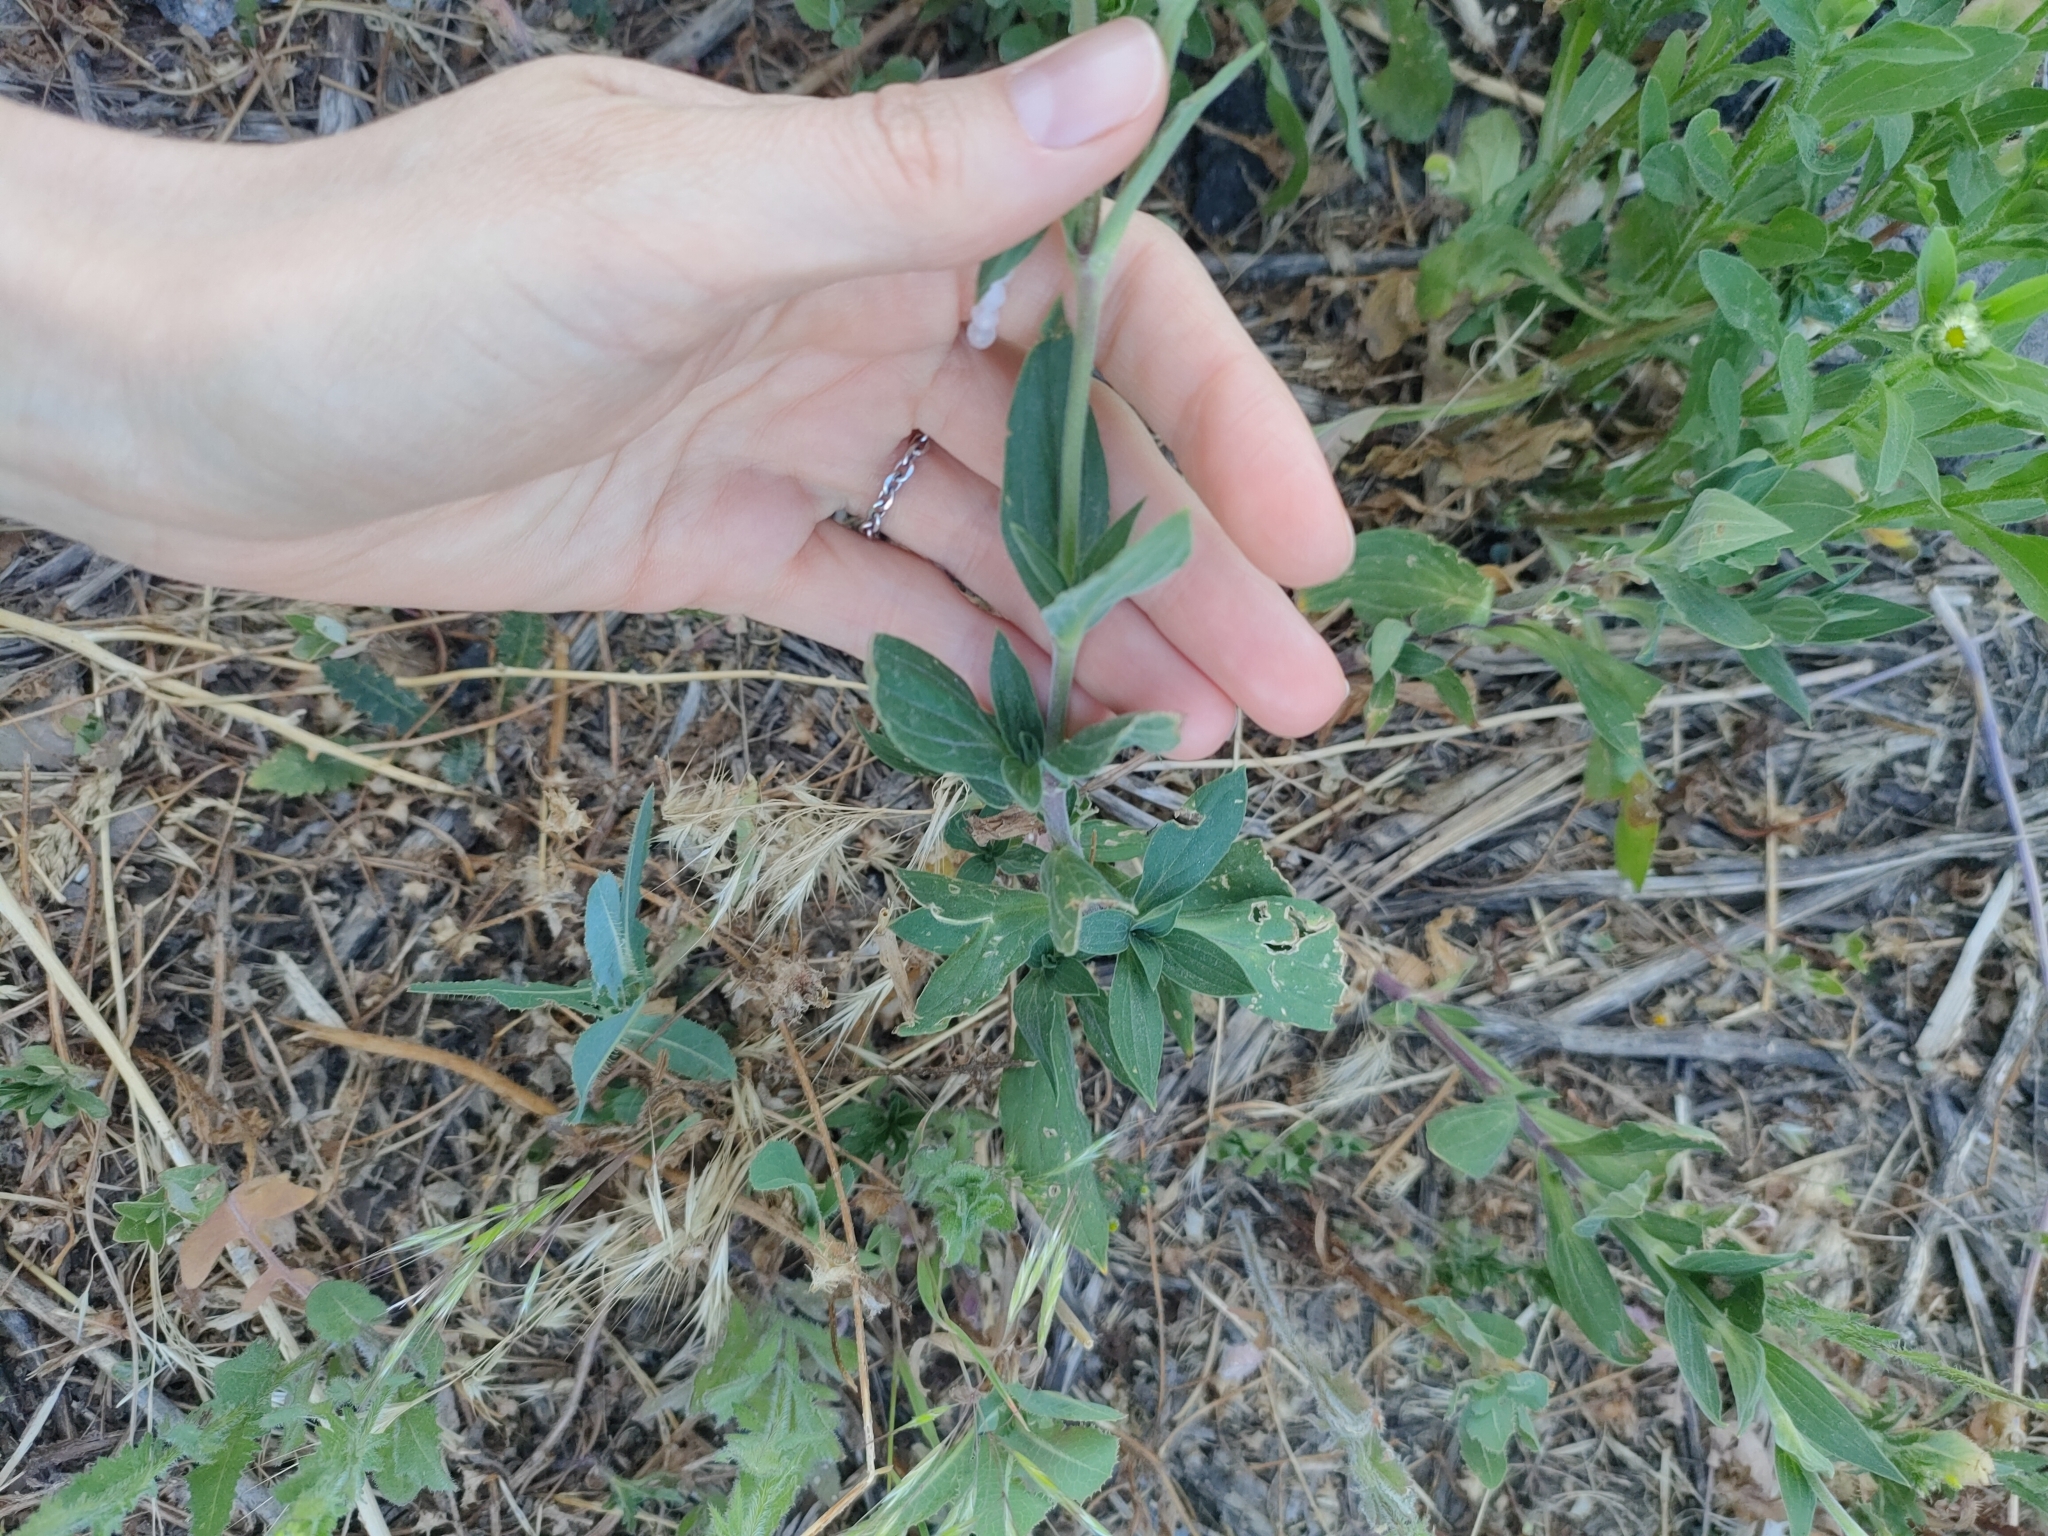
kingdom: Plantae
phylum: Tracheophyta
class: Magnoliopsida
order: Caryophyllales
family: Caryophyllaceae
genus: Silene
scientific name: Silene latifolia
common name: White campion
